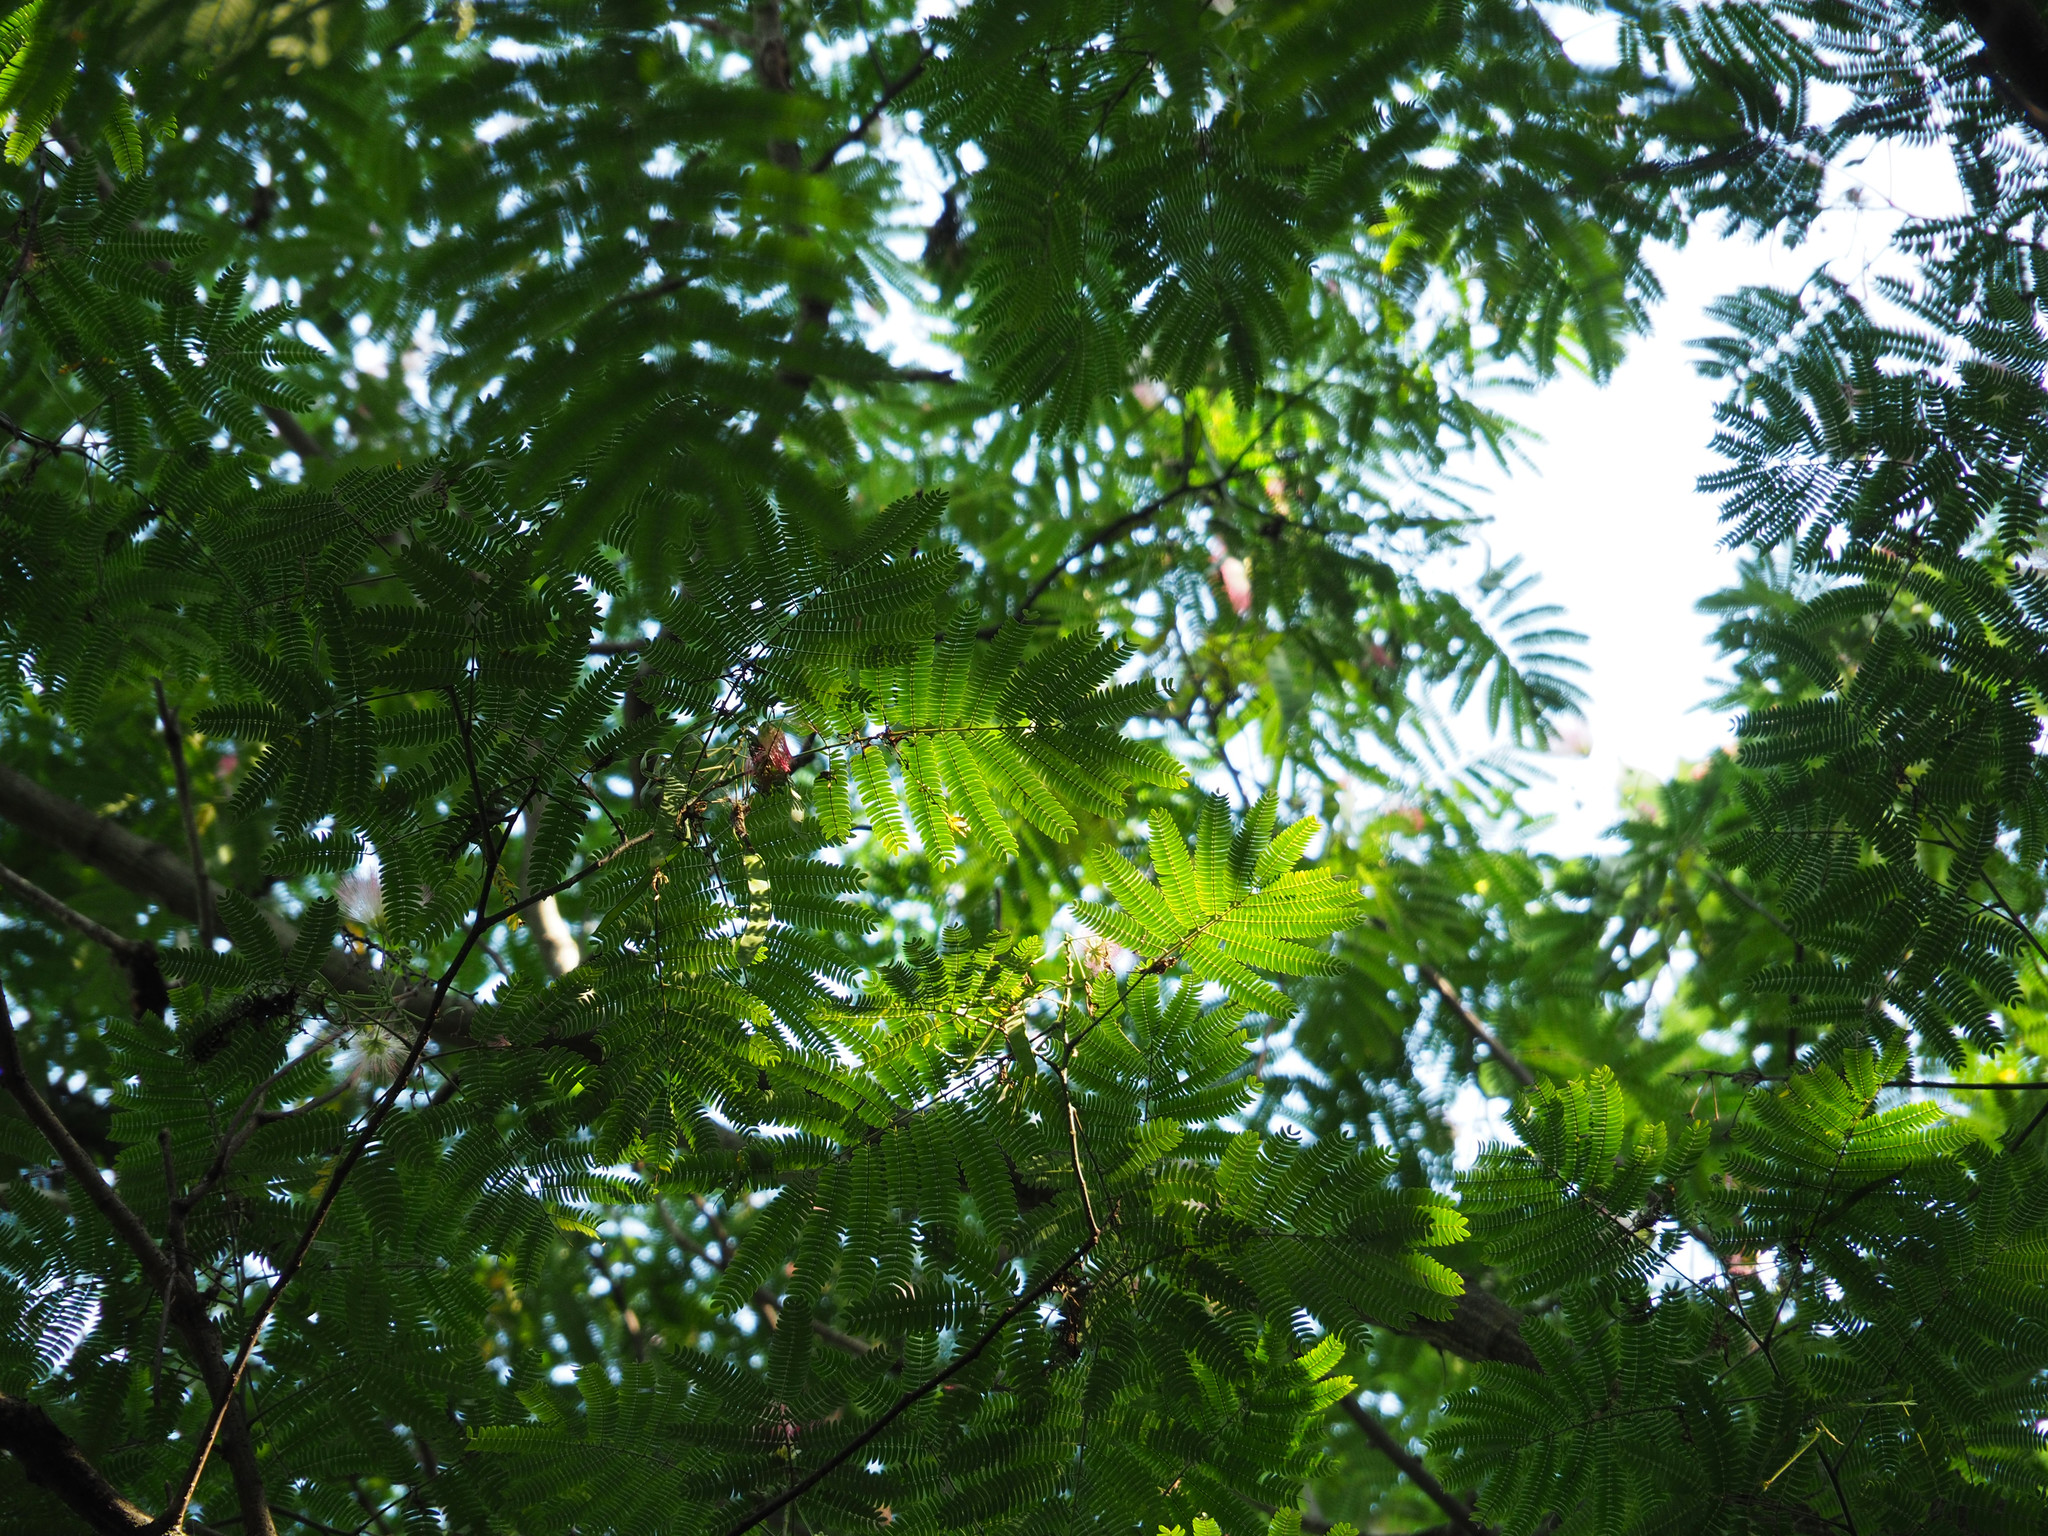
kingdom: Plantae
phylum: Tracheophyta
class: Magnoliopsida
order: Fabales
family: Fabaceae
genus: Albizia
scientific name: Albizia julibrissin
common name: Silktree
